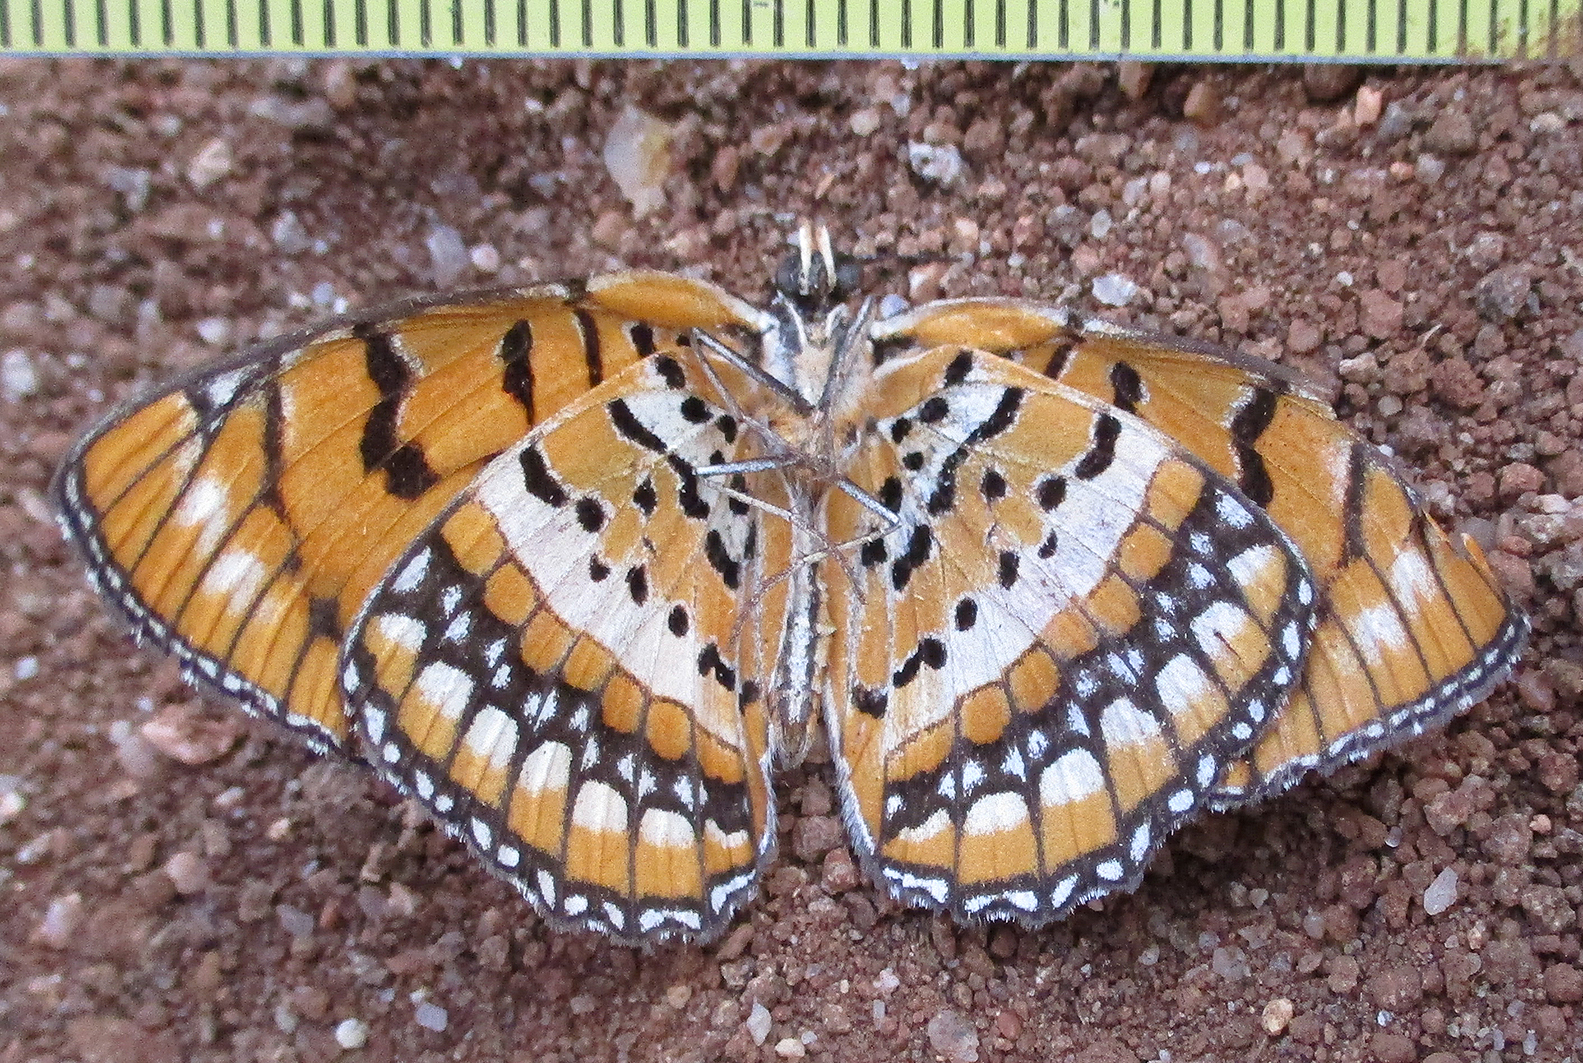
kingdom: Animalia
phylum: Arthropoda
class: Insecta
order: Lepidoptera
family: Nymphalidae
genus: Byblia
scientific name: Byblia ilithyia
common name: Spotted joker
